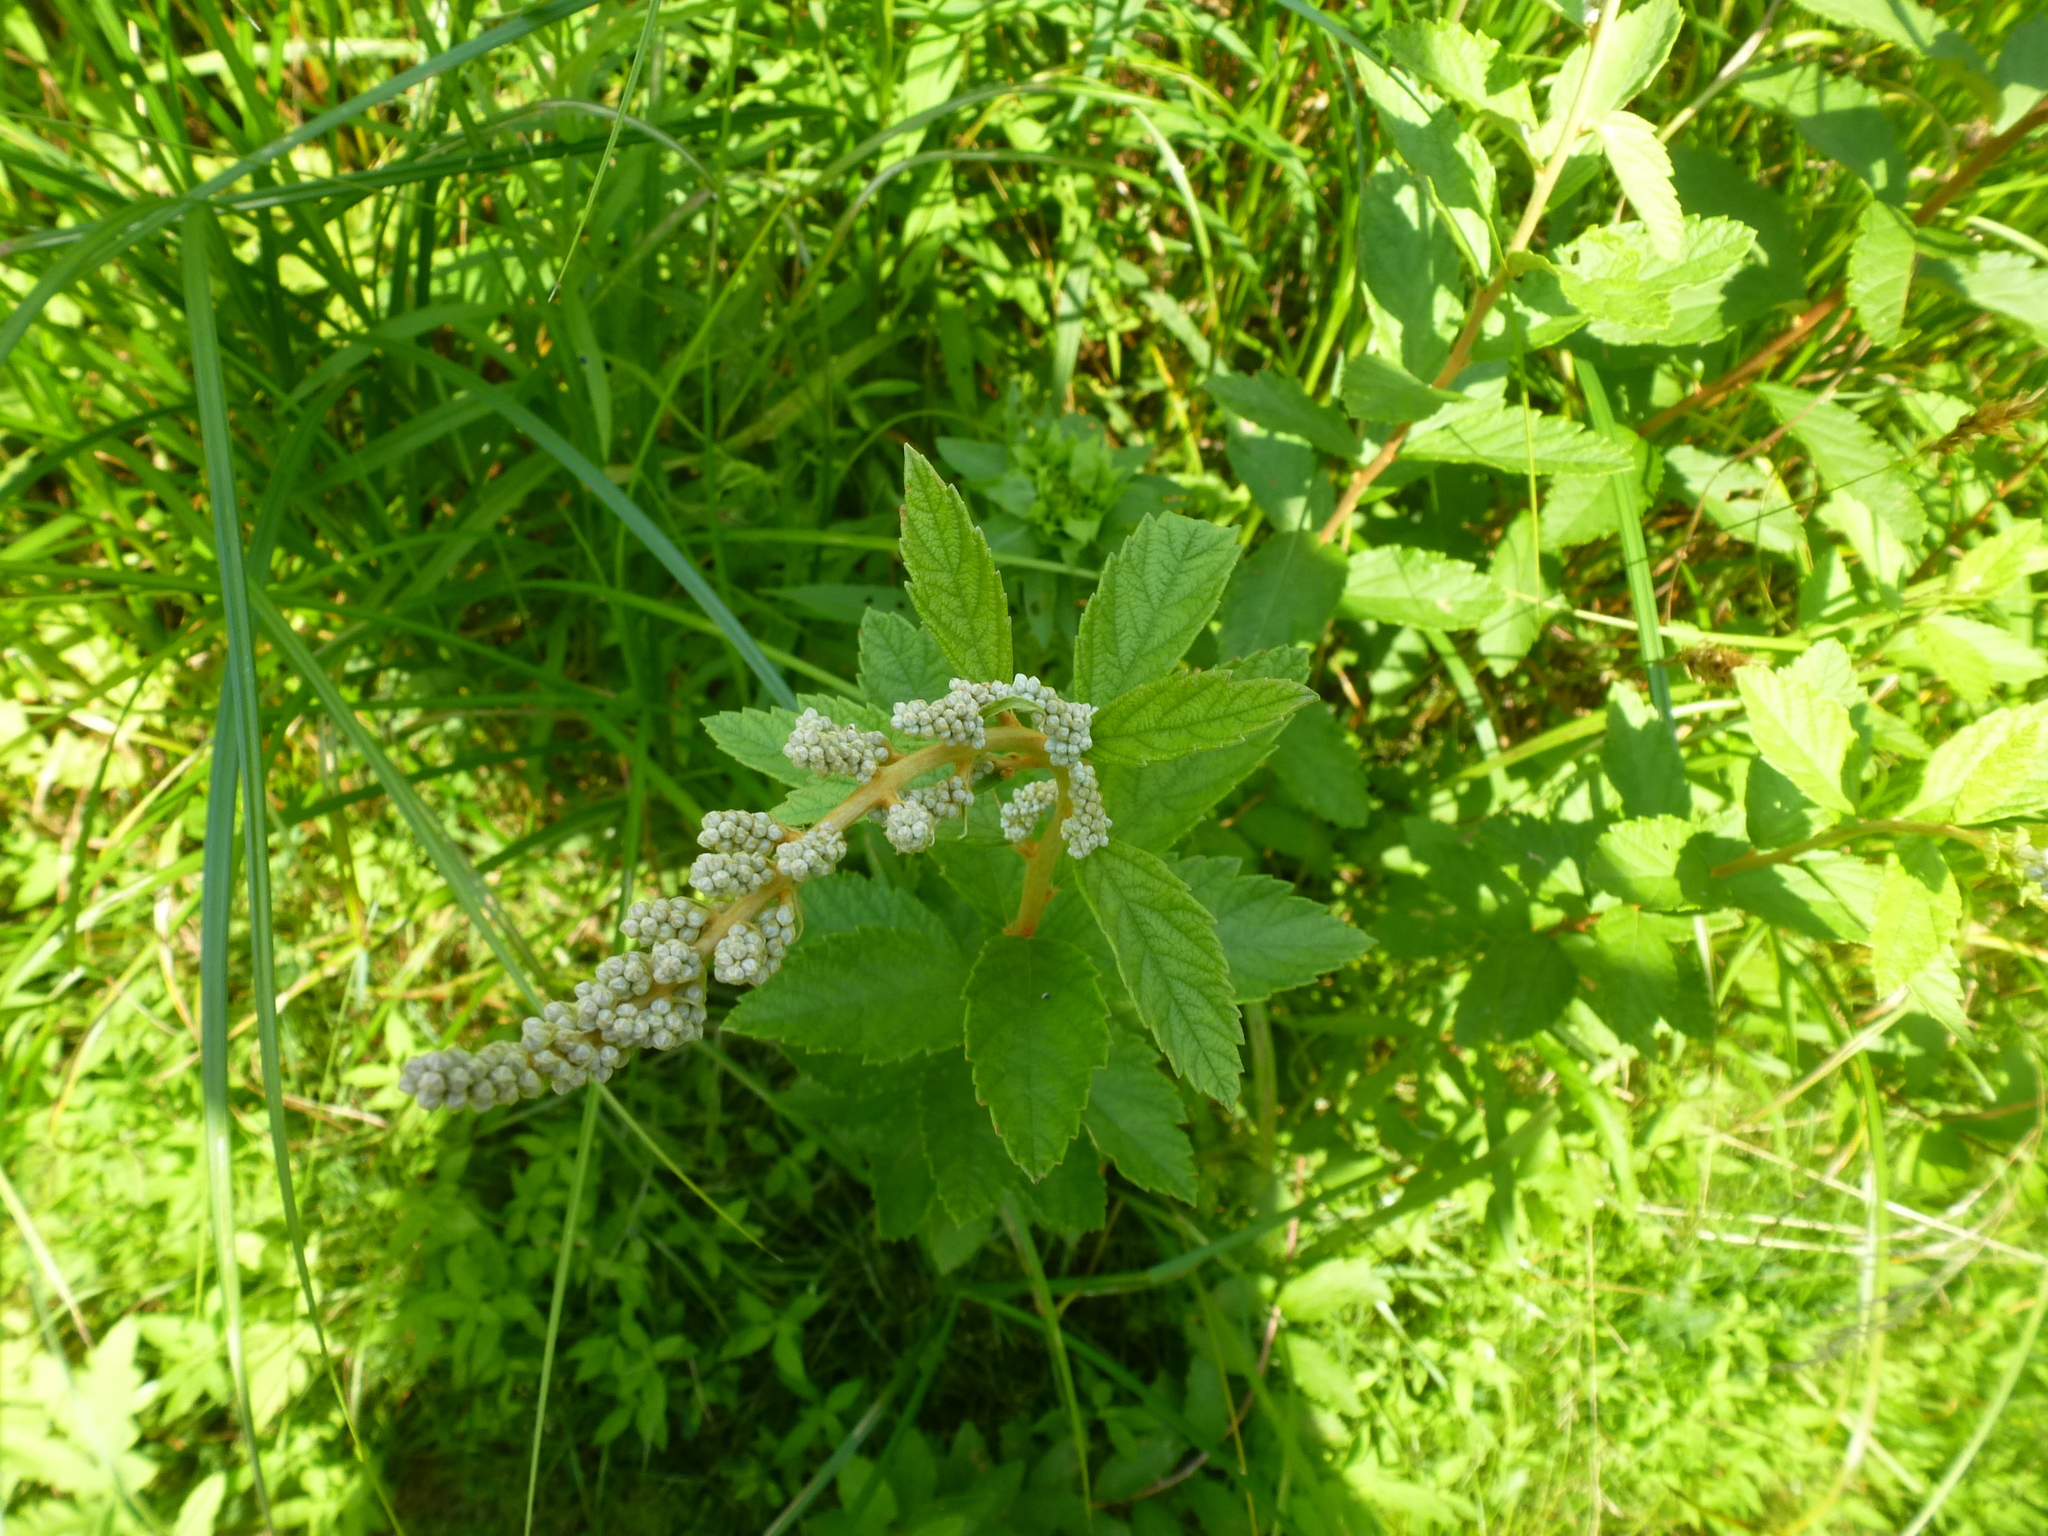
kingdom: Plantae
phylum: Tracheophyta
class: Magnoliopsida
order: Rosales
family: Rosaceae
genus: Spiraea
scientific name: Spiraea tomentosa
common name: Hardhack
